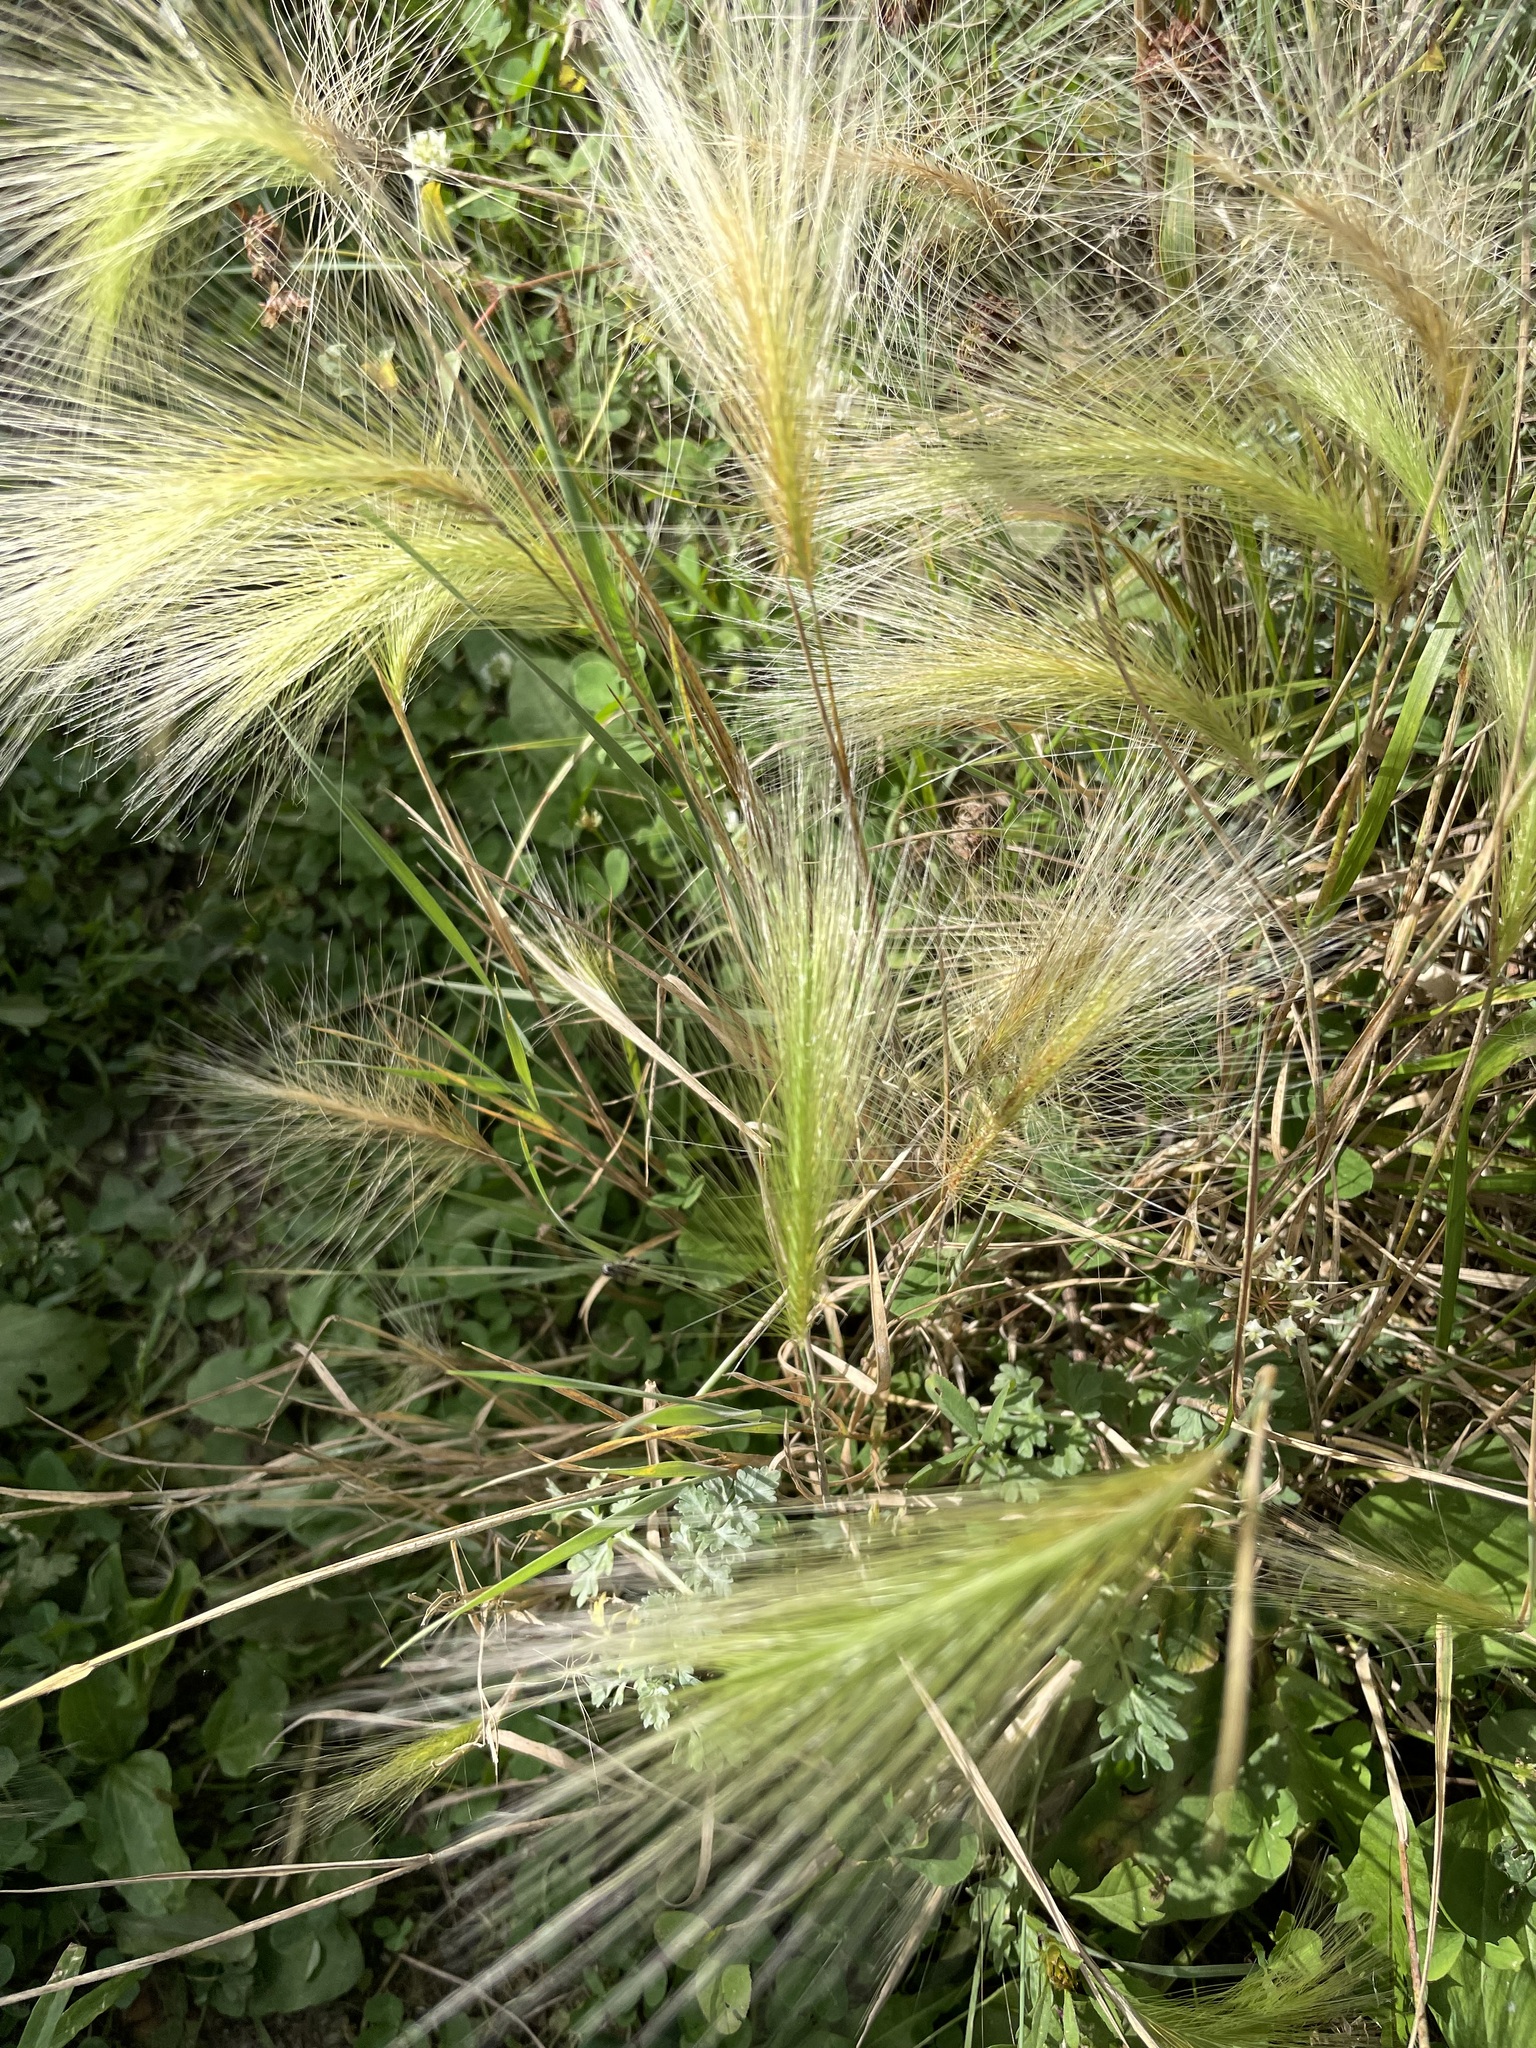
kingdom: Plantae
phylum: Tracheophyta
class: Liliopsida
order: Poales
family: Poaceae
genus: Hordeum
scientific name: Hordeum jubatum
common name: Foxtail barley
